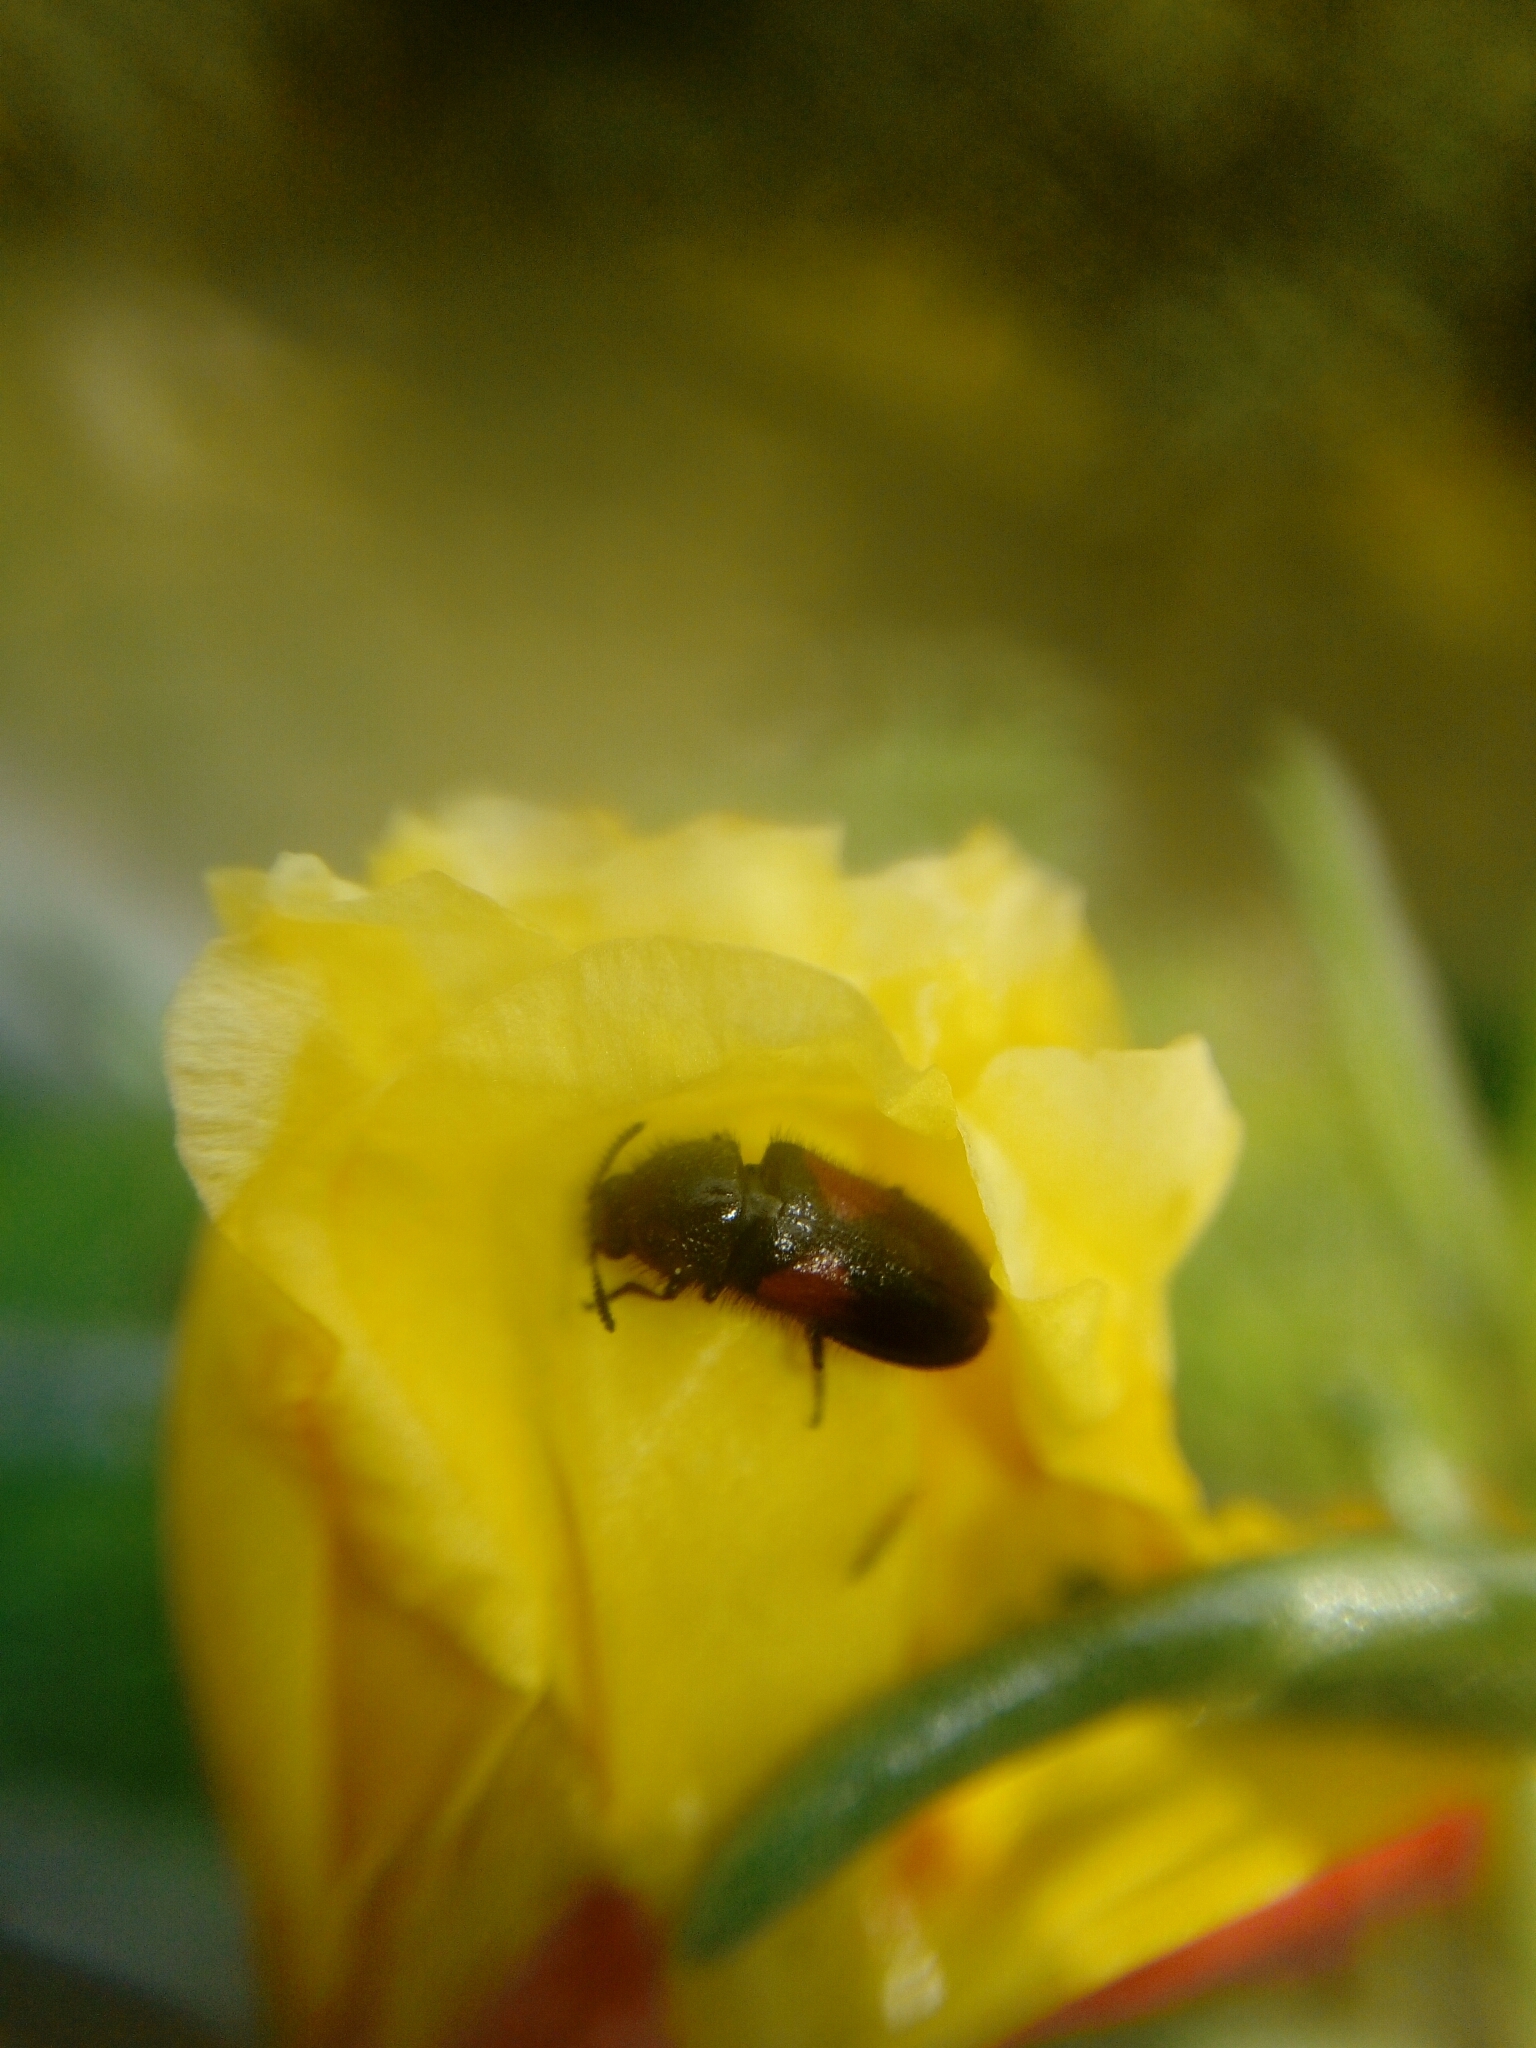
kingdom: Animalia
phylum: Arthropoda
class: Insecta
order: Coleoptera
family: Melyridae
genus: Divales
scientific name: Divales bipustulatus
